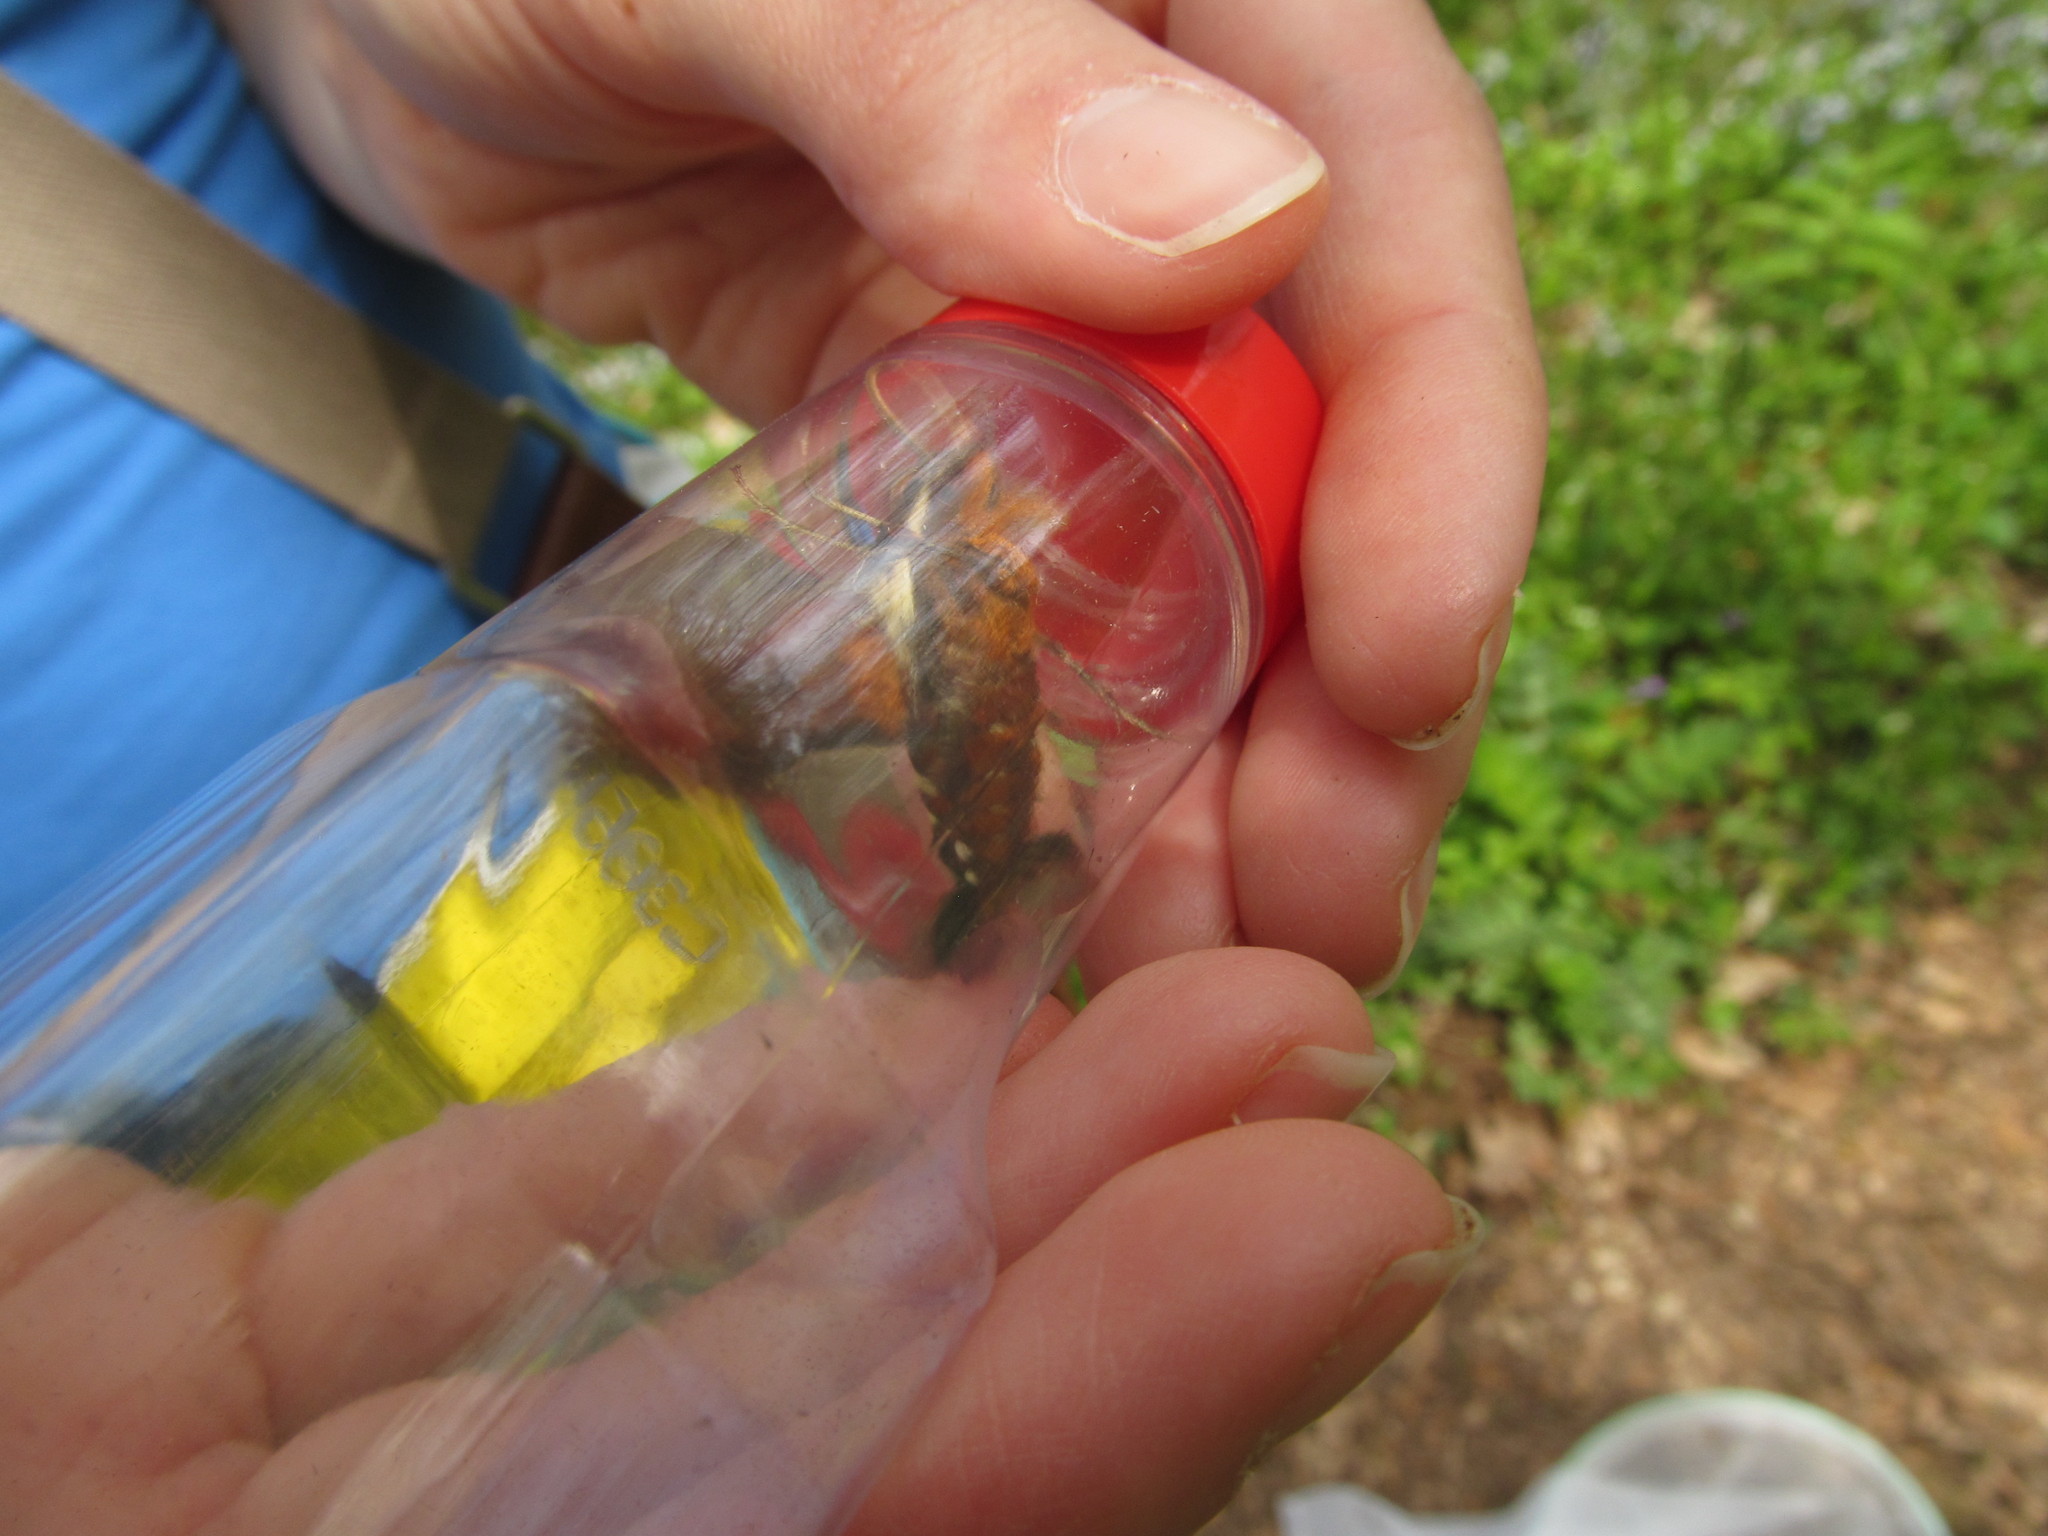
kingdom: Animalia
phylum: Arthropoda
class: Insecta
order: Lepidoptera
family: Sphingidae
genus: Amphion
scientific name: Amphion floridensis
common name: Nessus sphinx
